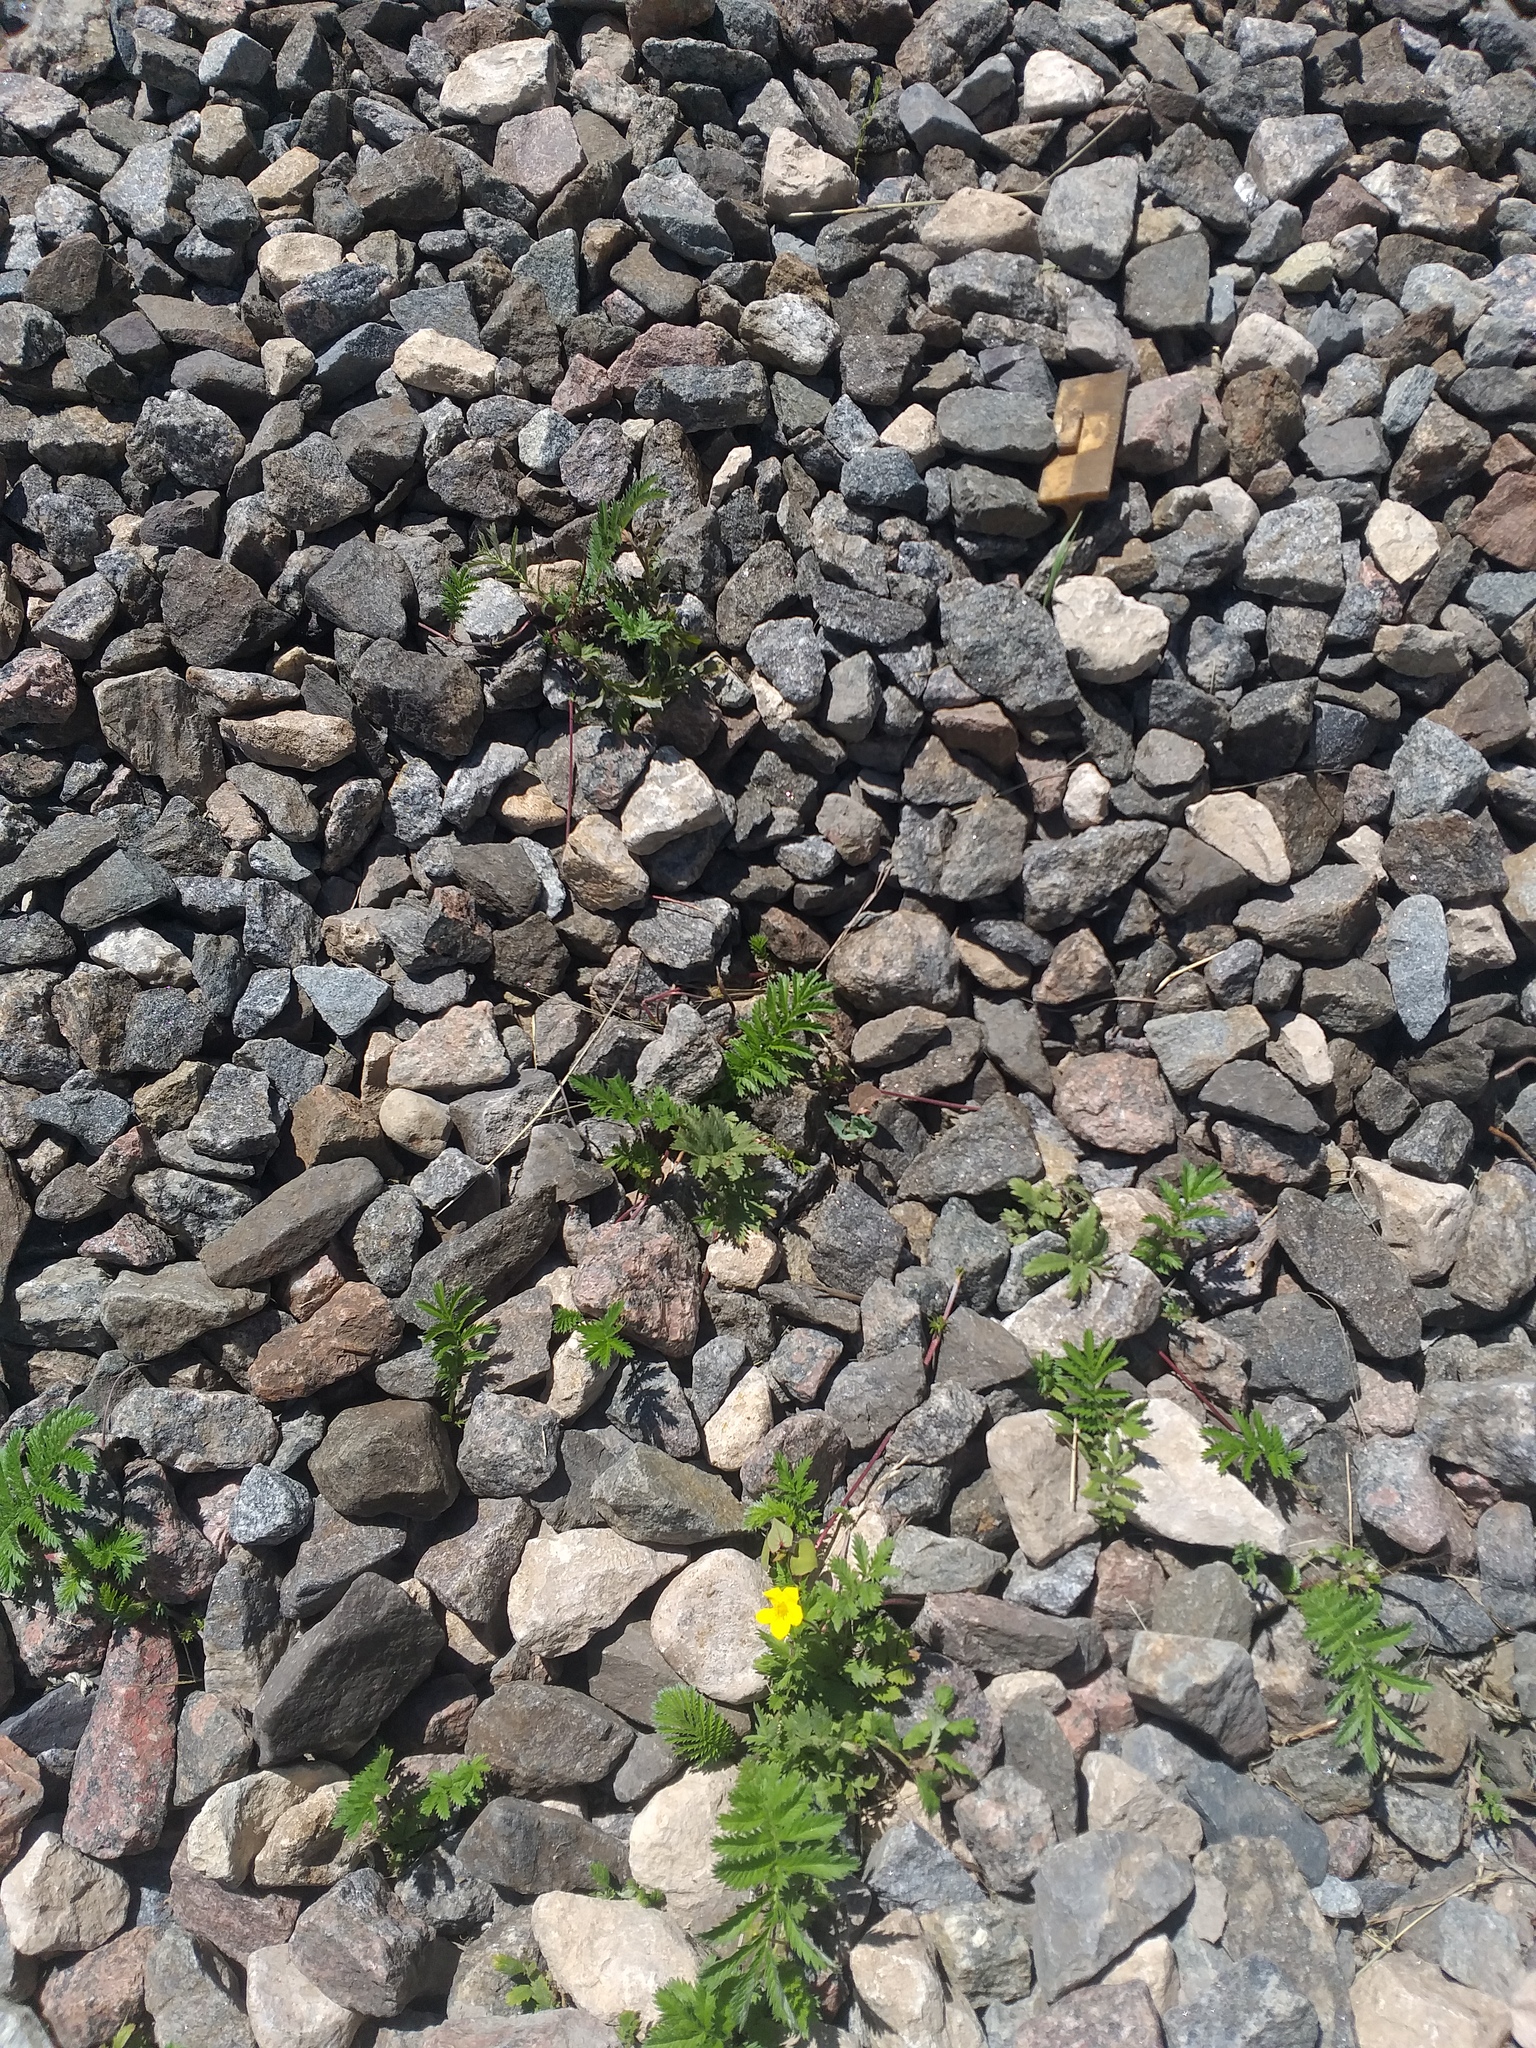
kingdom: Plantae
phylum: Tracheophyta
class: Magnoliopsida
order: Rosales
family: Rosaceae
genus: Argentina
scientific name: Argentina anserina
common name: Common silverweed
